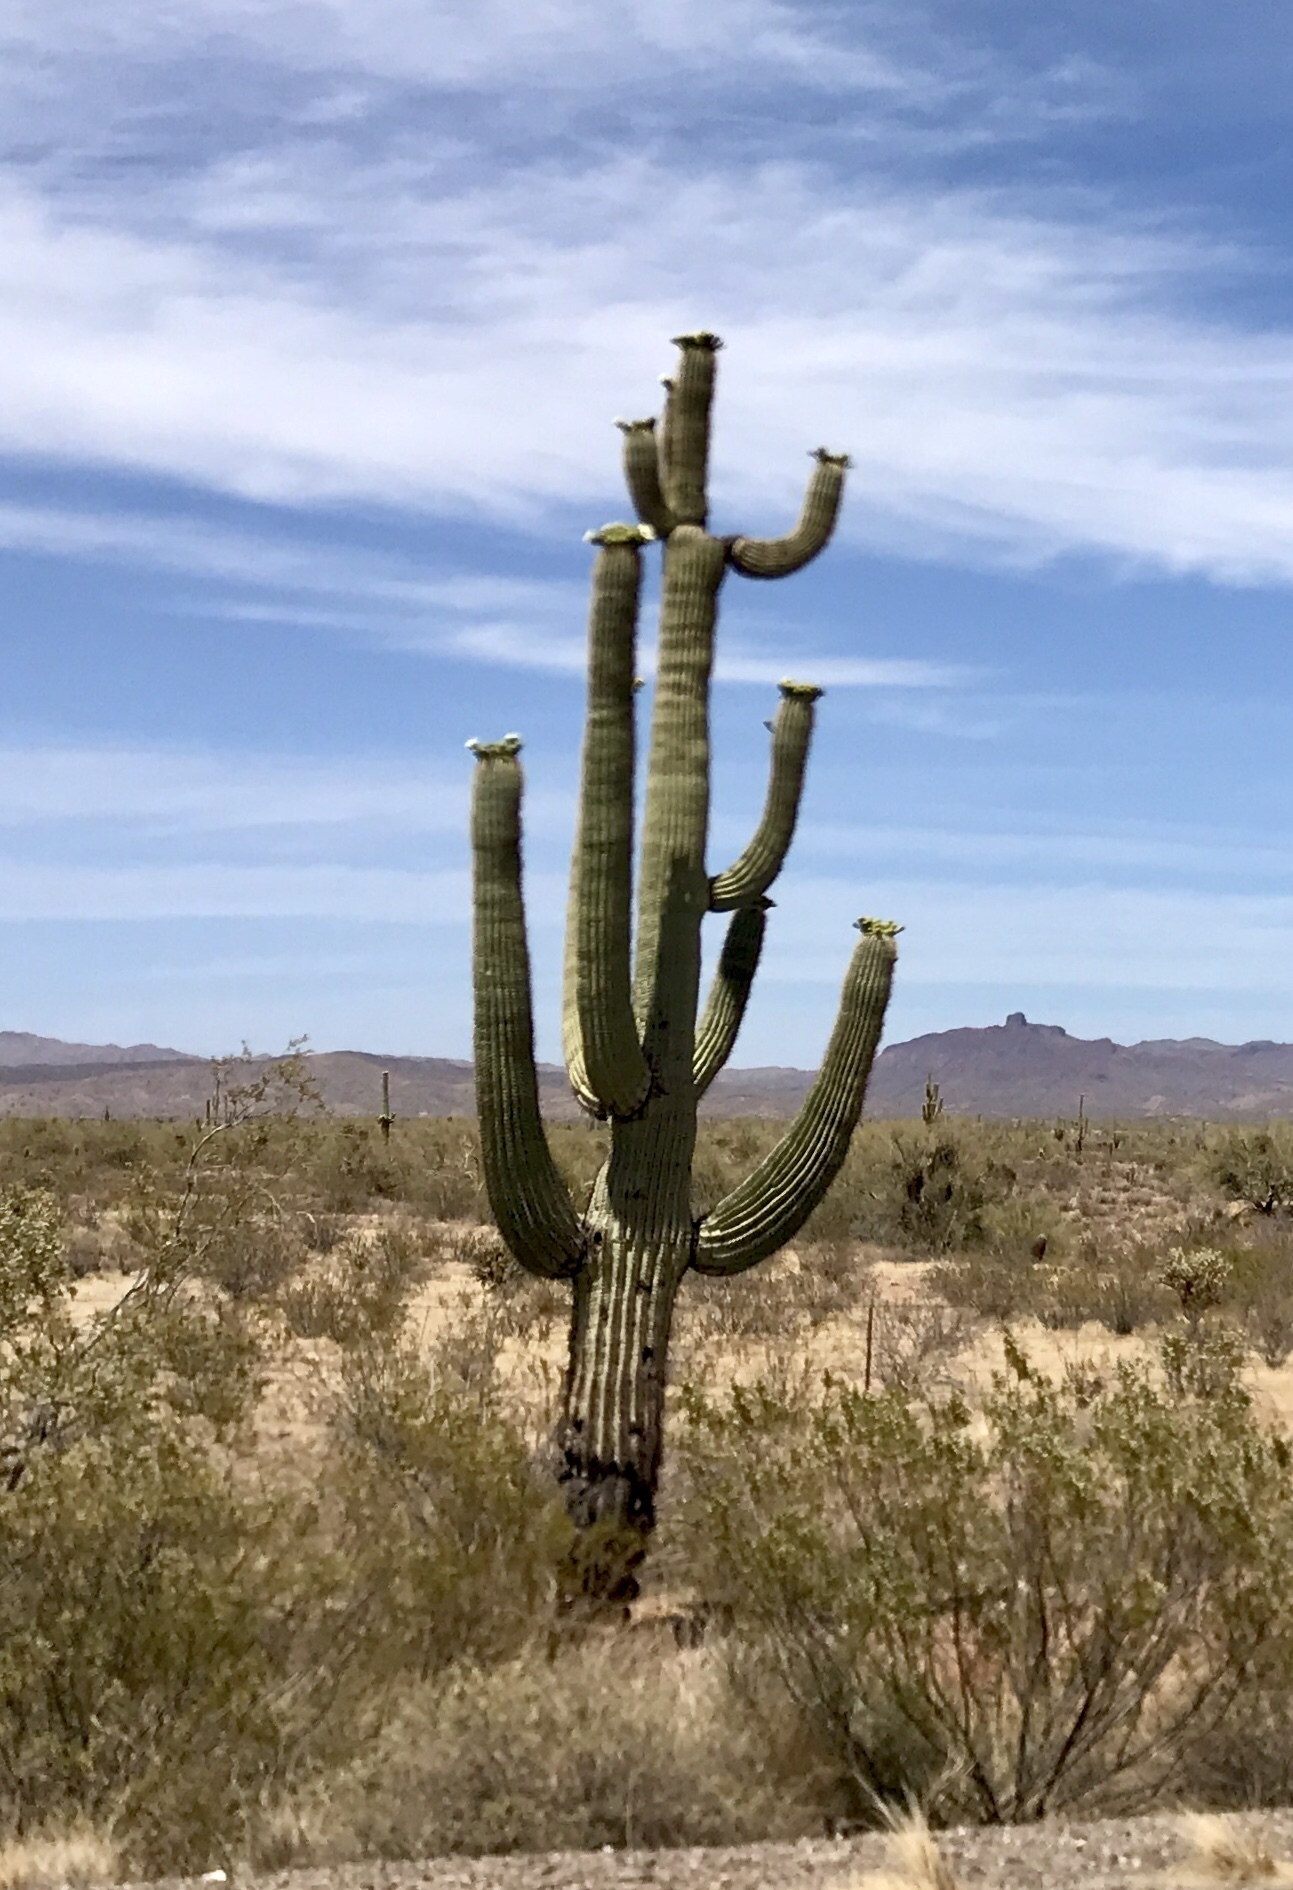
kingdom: Plantae
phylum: Tracheophyta
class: Magnoliopsida
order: Caryophyllales
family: Cactaceae
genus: Carnegiea
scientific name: Carnegiea gigantea
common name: Saguaro
